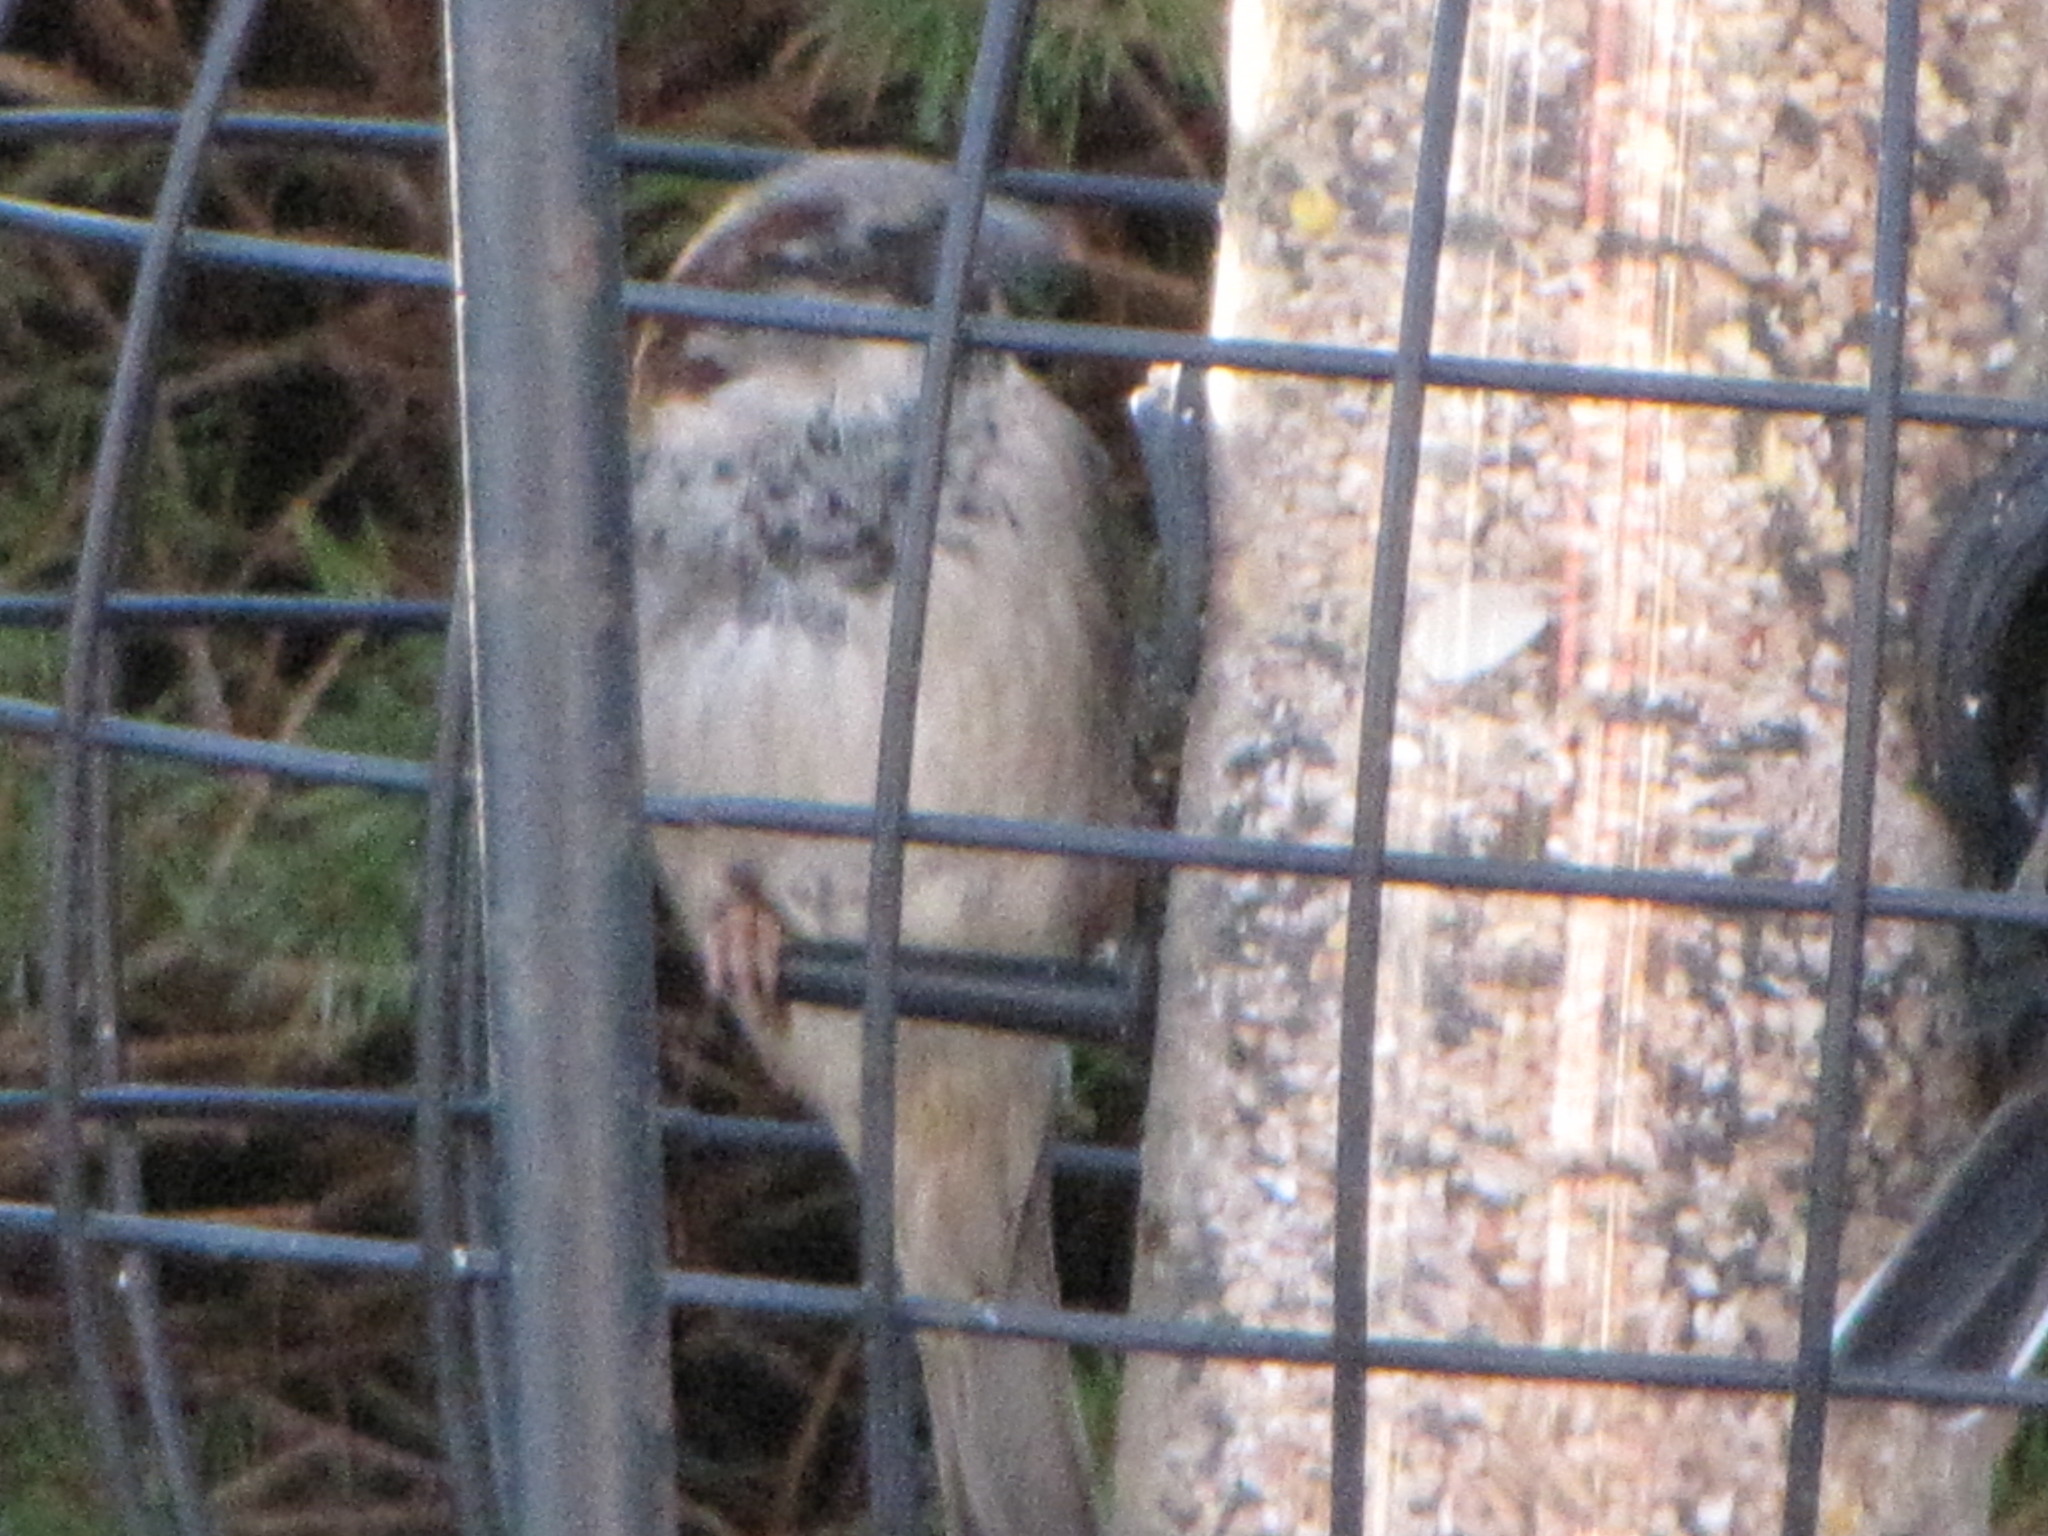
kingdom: Animalia
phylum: Chordata
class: Aves
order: Passeriformes
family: Passeridae
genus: Passer
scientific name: Passer domesticus
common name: House sparrow
